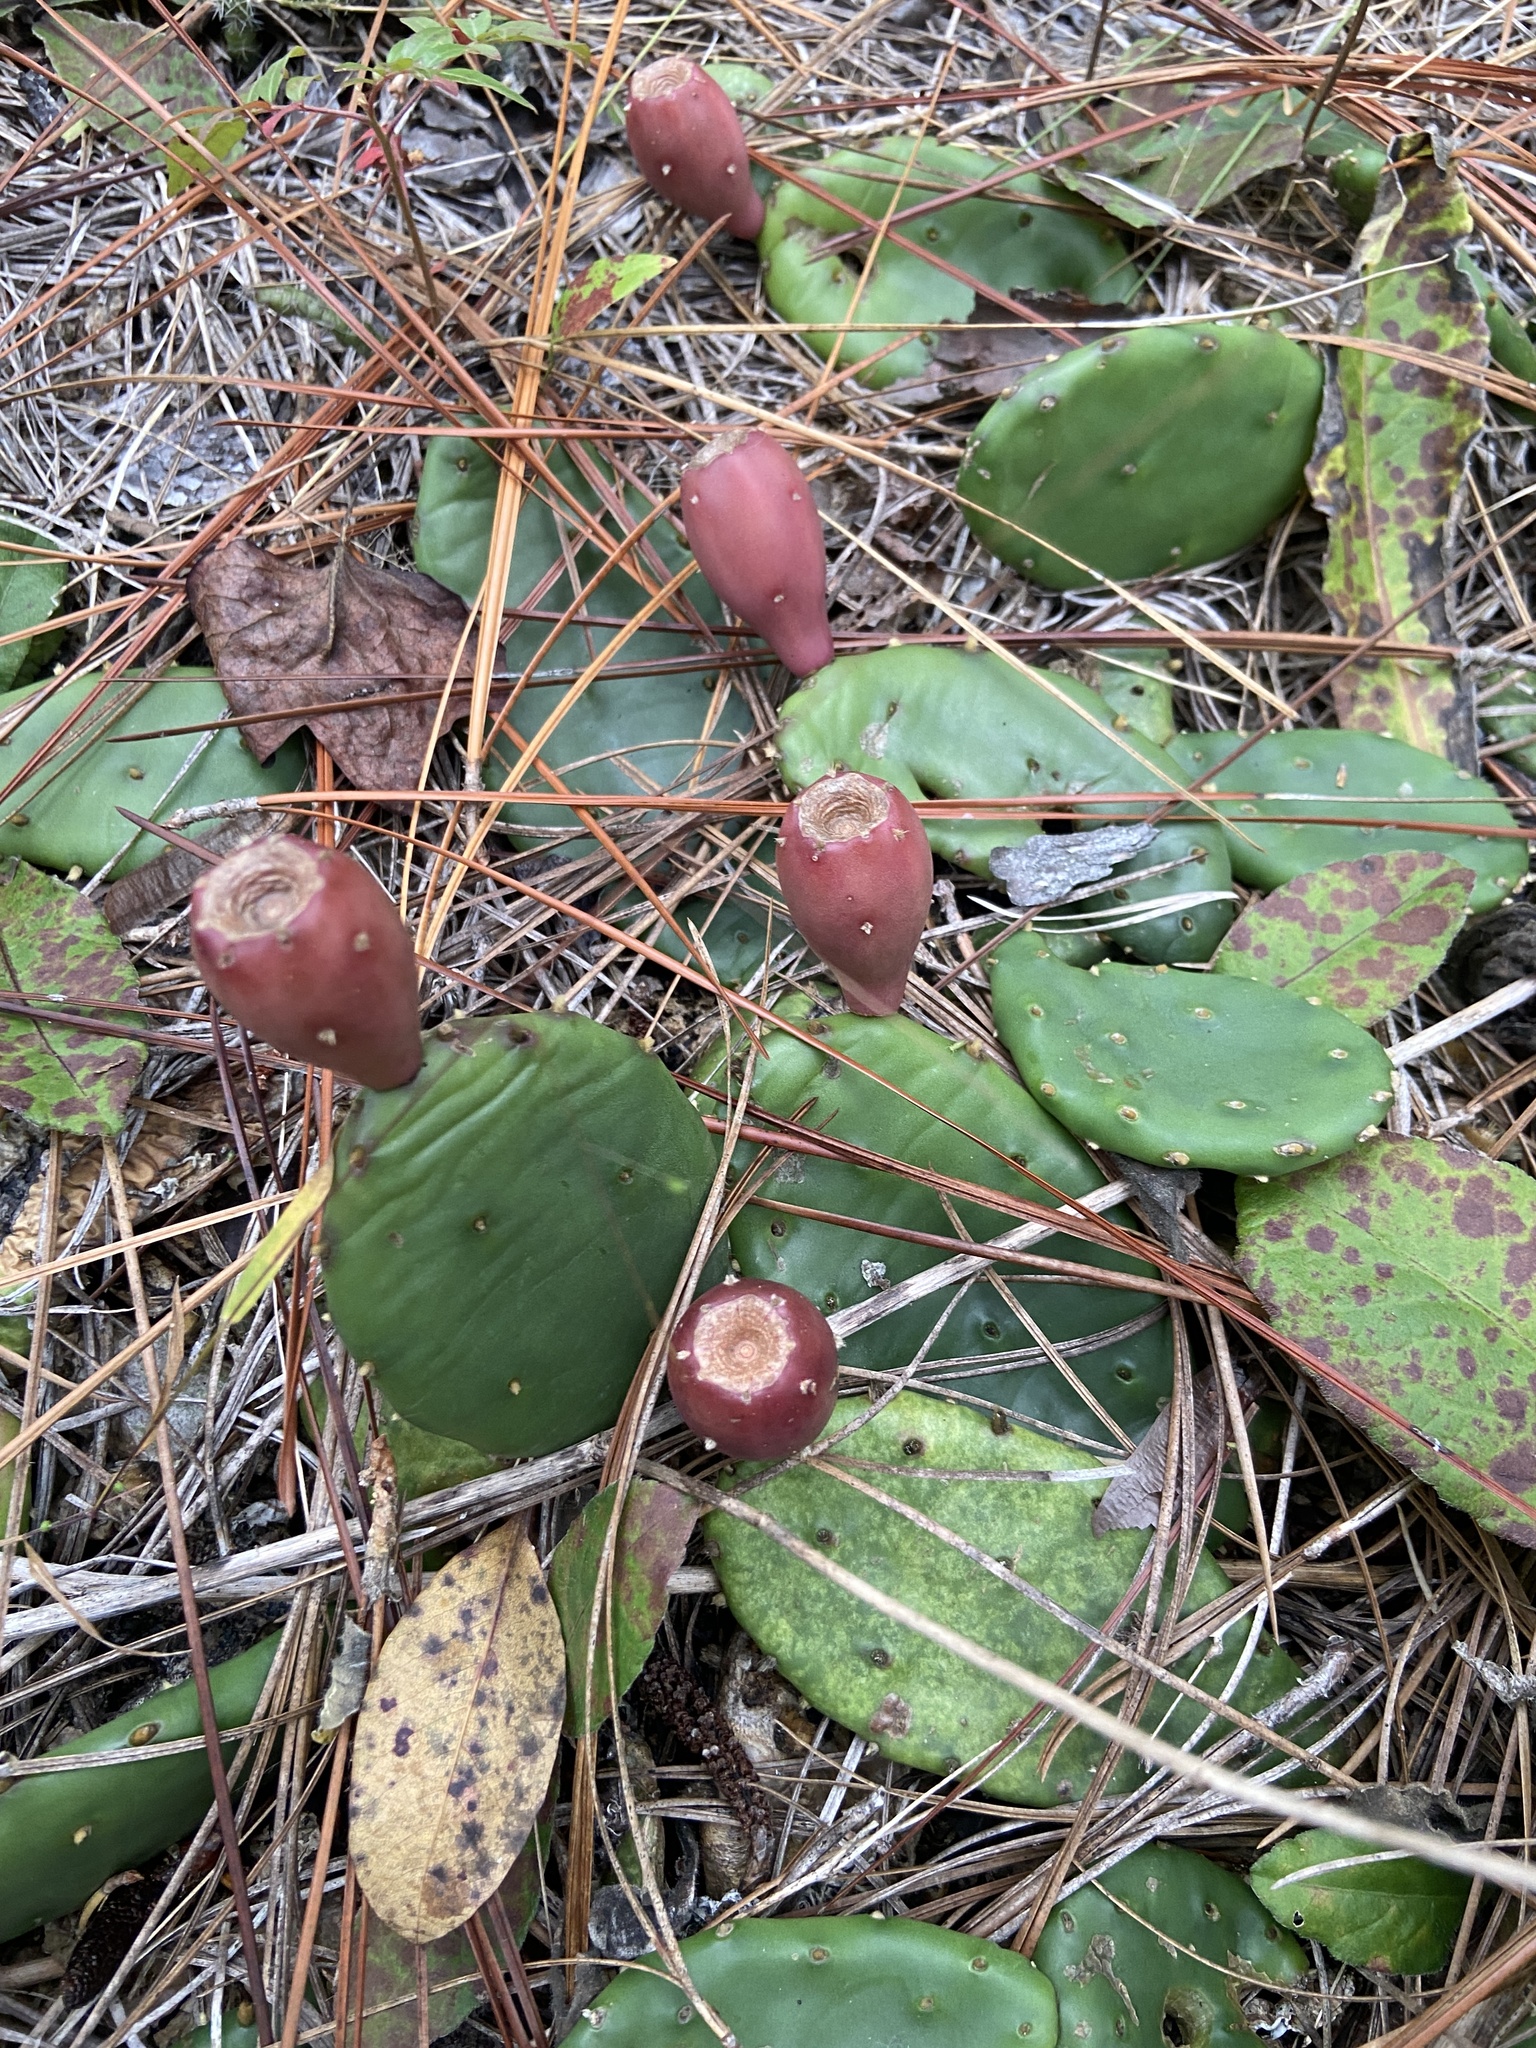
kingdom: Plantae
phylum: Tracheophyta
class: Magnoliopsida
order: Caryophyllales
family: Cactaceae
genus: Opuntia
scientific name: Opuntia mesacantha
